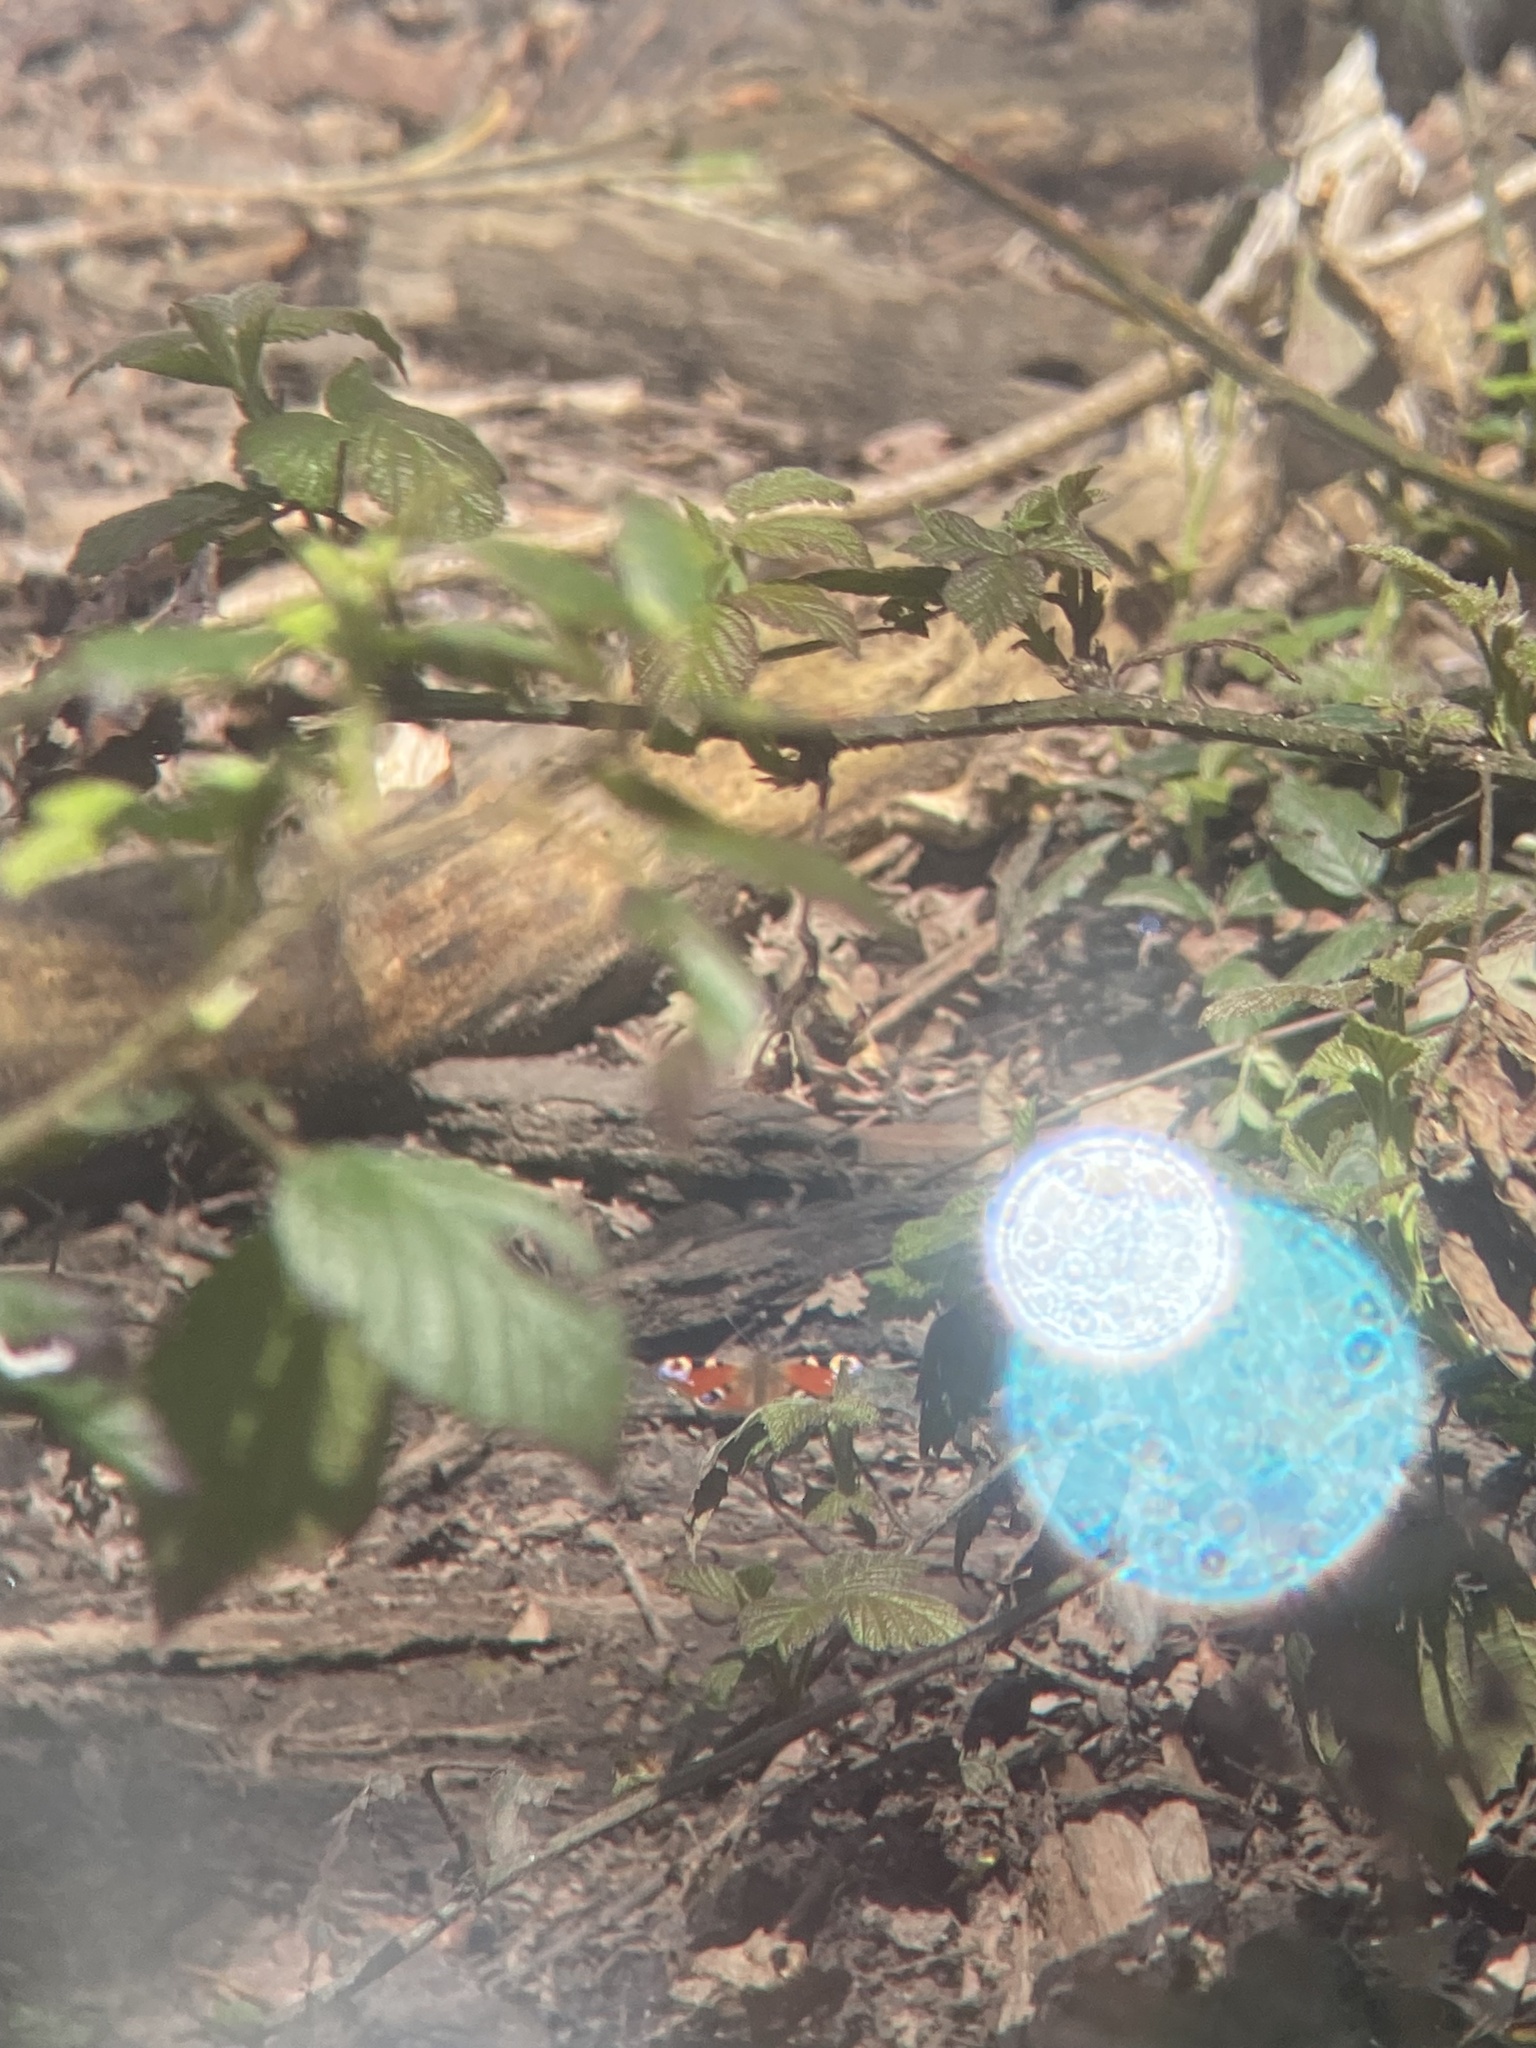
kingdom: Animalia
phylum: Arthropoda
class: Insecta
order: Lepidoptera
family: Nymphalidae
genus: Aglais
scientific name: Aglais io
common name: Peacock
